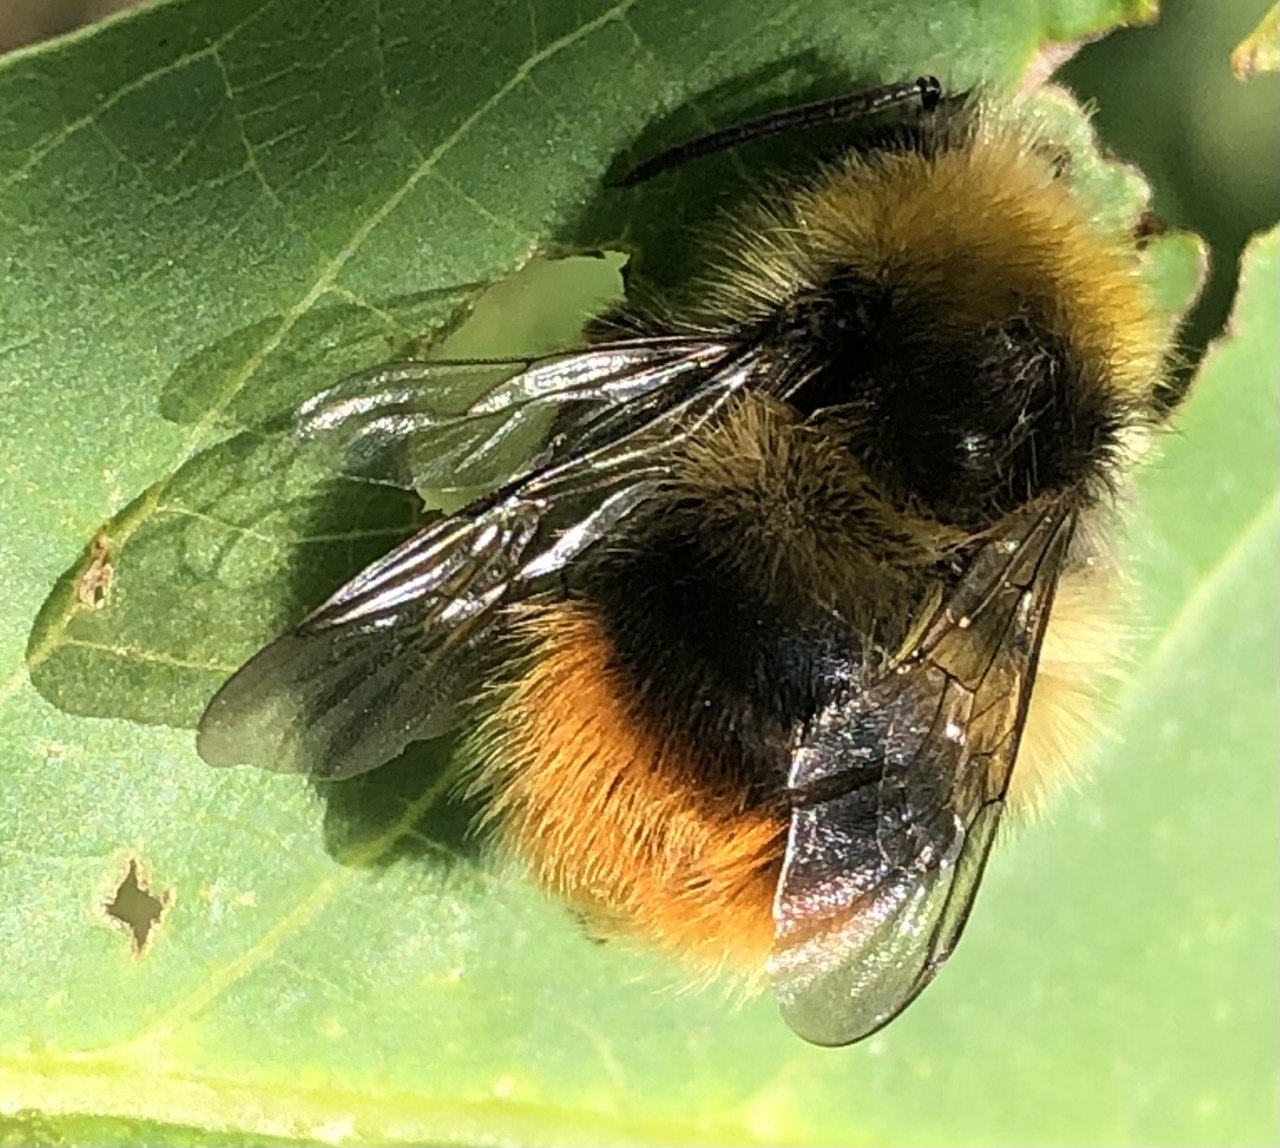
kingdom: Animalia
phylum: Arthropoda
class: Insecta
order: Hymenoptera
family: Apidae
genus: Bombus
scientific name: Bombus pratorum
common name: Early humble-bee
